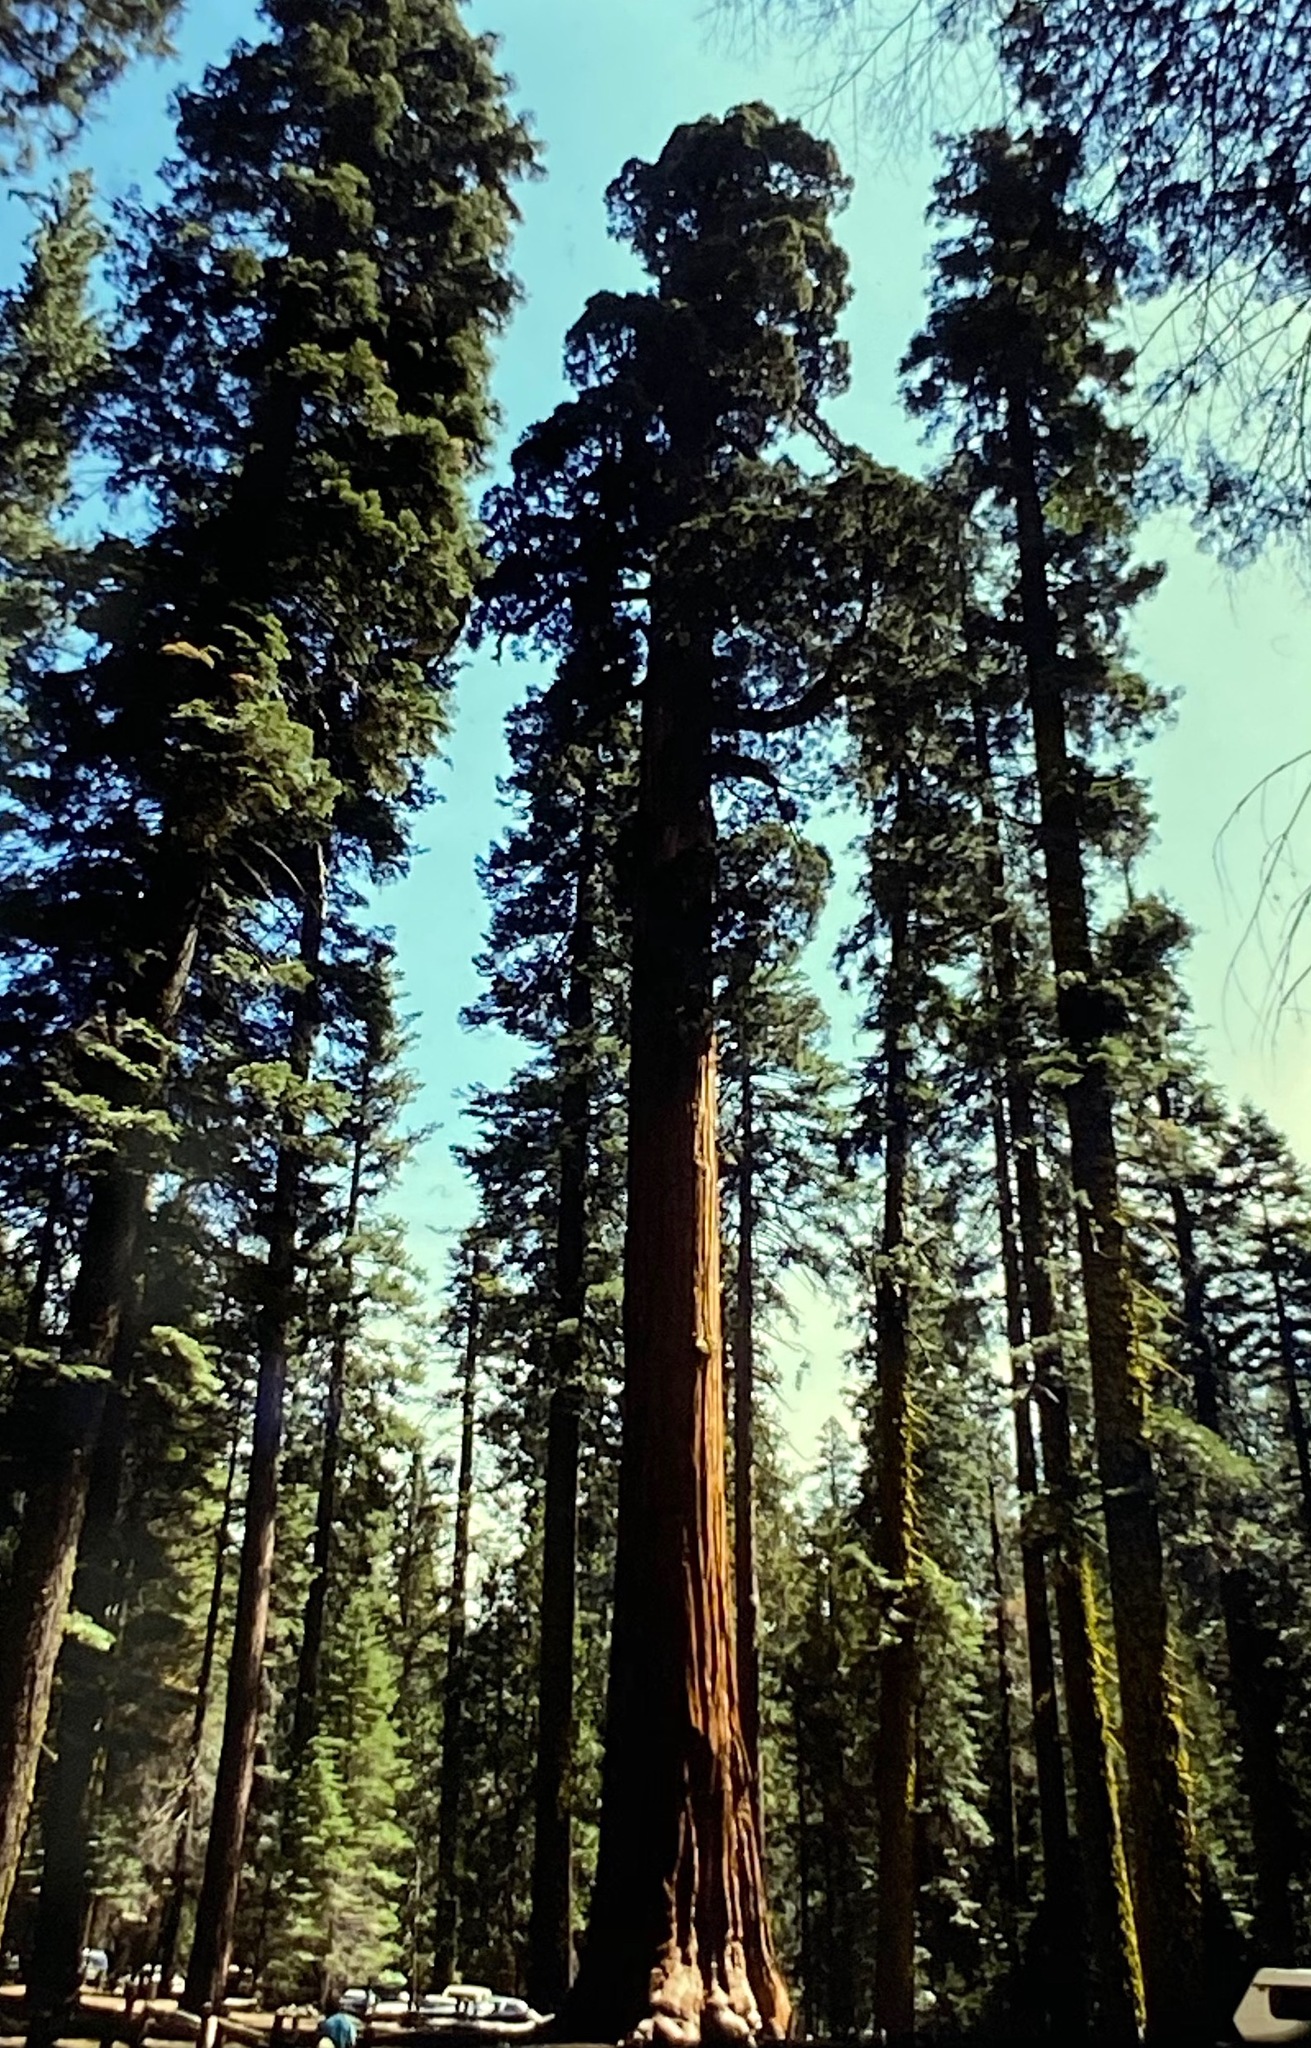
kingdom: Plantae
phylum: Tracheophyta
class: Pinopsida
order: Pinales
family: Cupressaceae
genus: Sequoiadendron
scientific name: Sequoiadendron giganteum
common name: Wellingtonia
